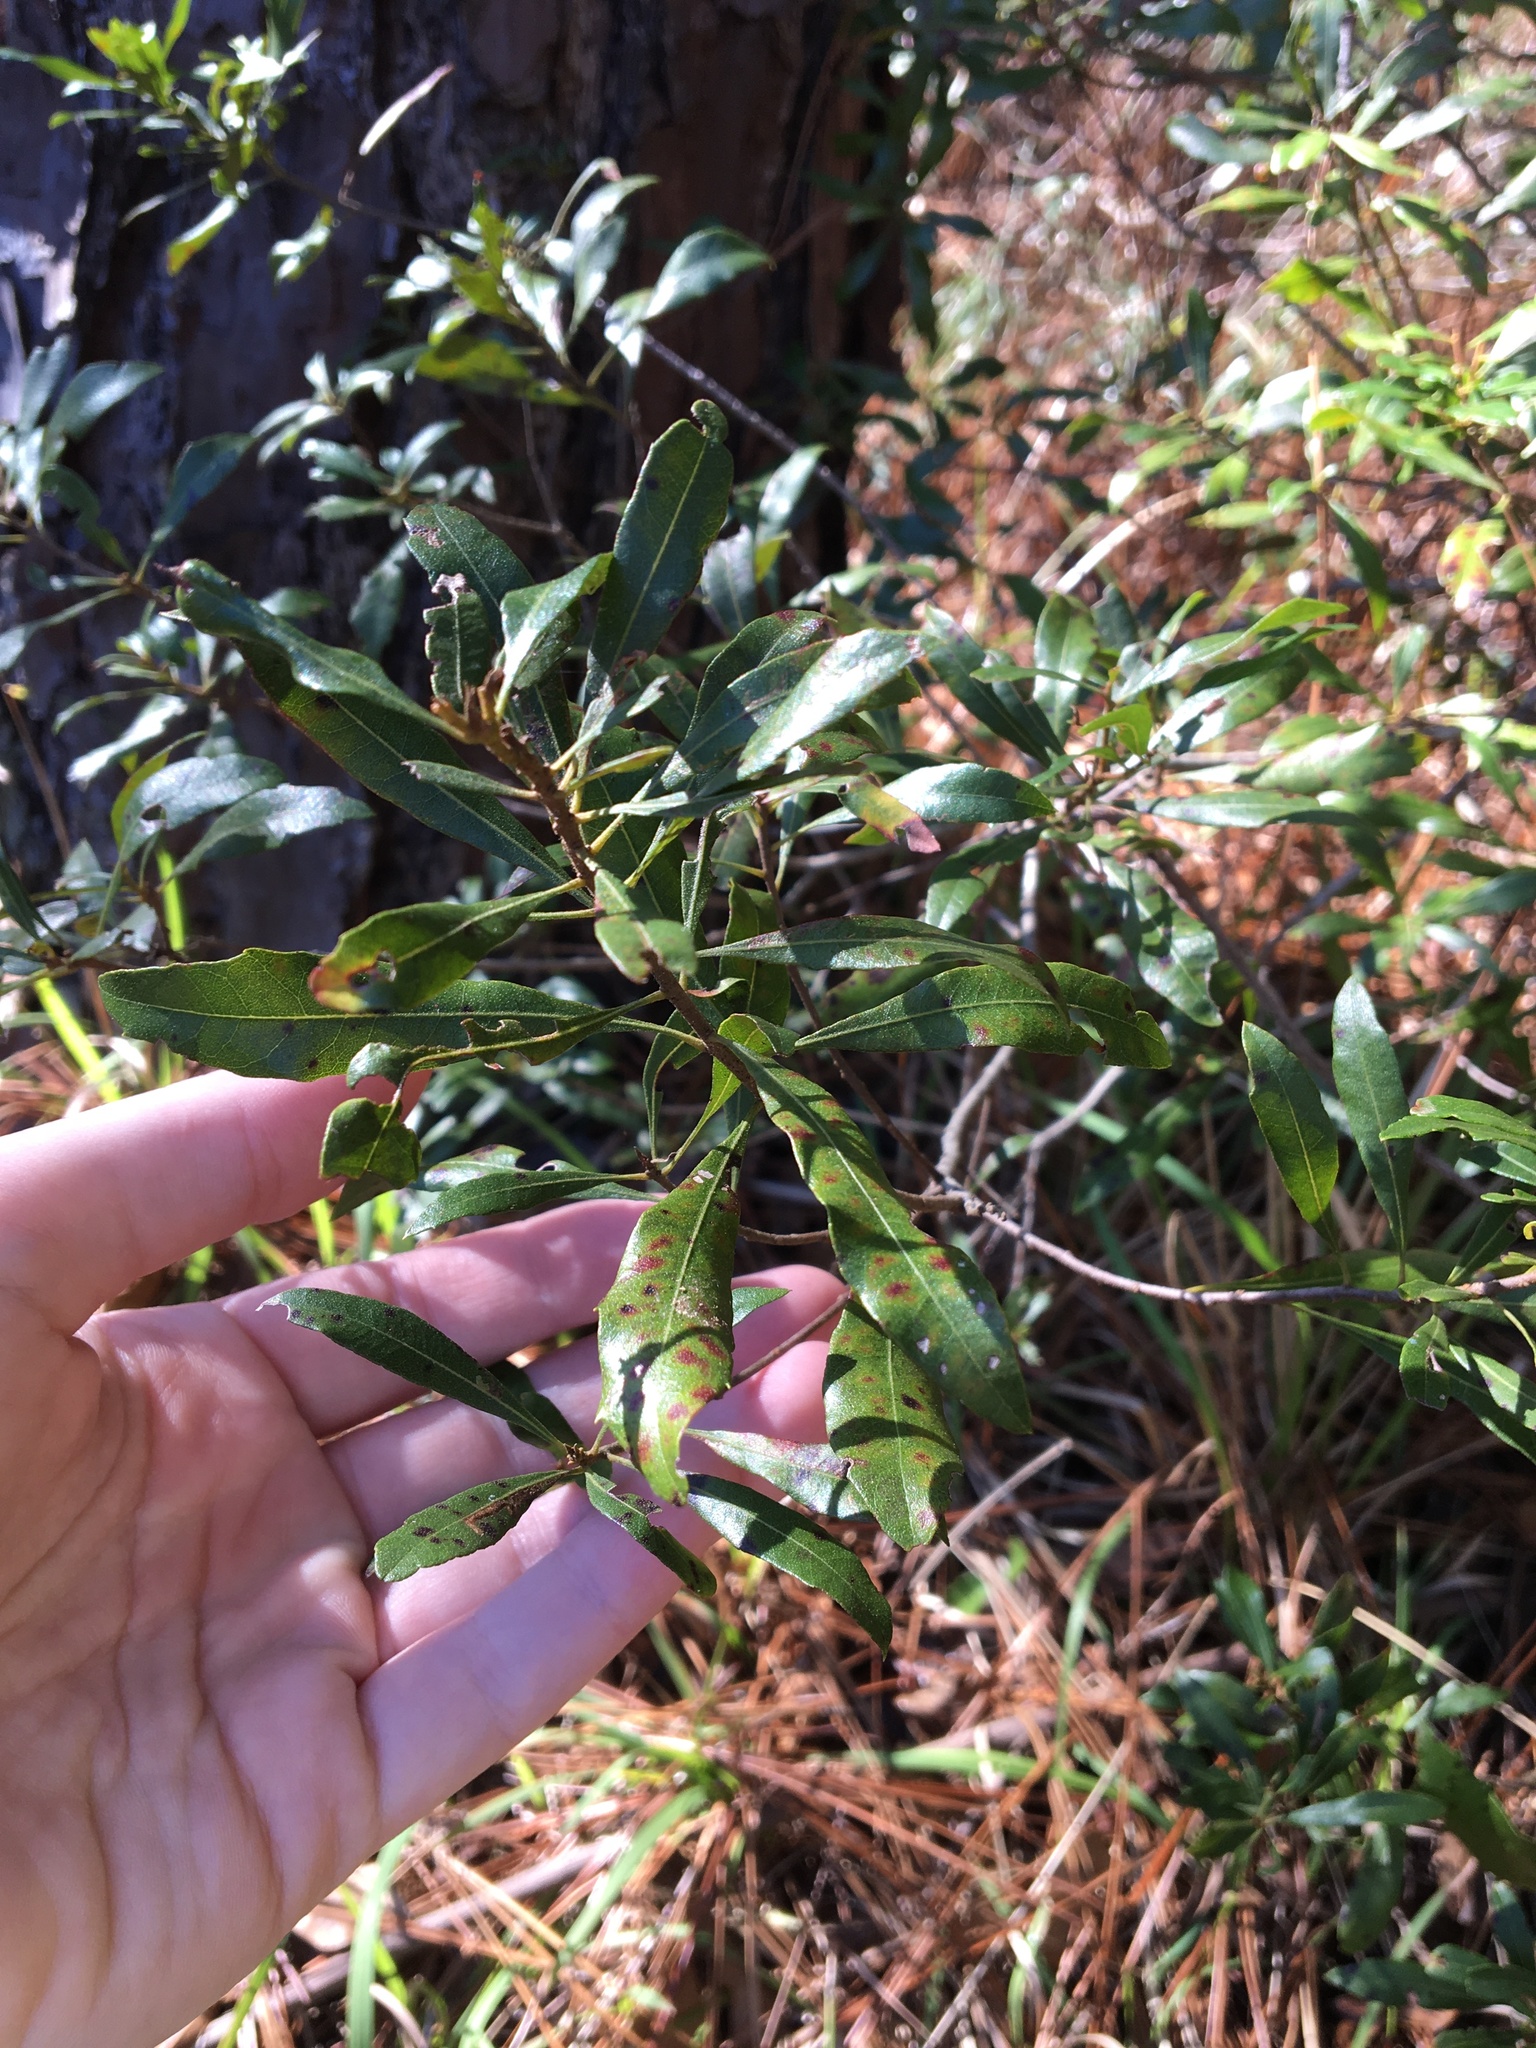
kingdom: Plantae
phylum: Tracheophyta
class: Magnoliopsida
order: Fagales
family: Myricaceae
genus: Morella
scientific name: Morella cerifera
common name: Wax myrtle
